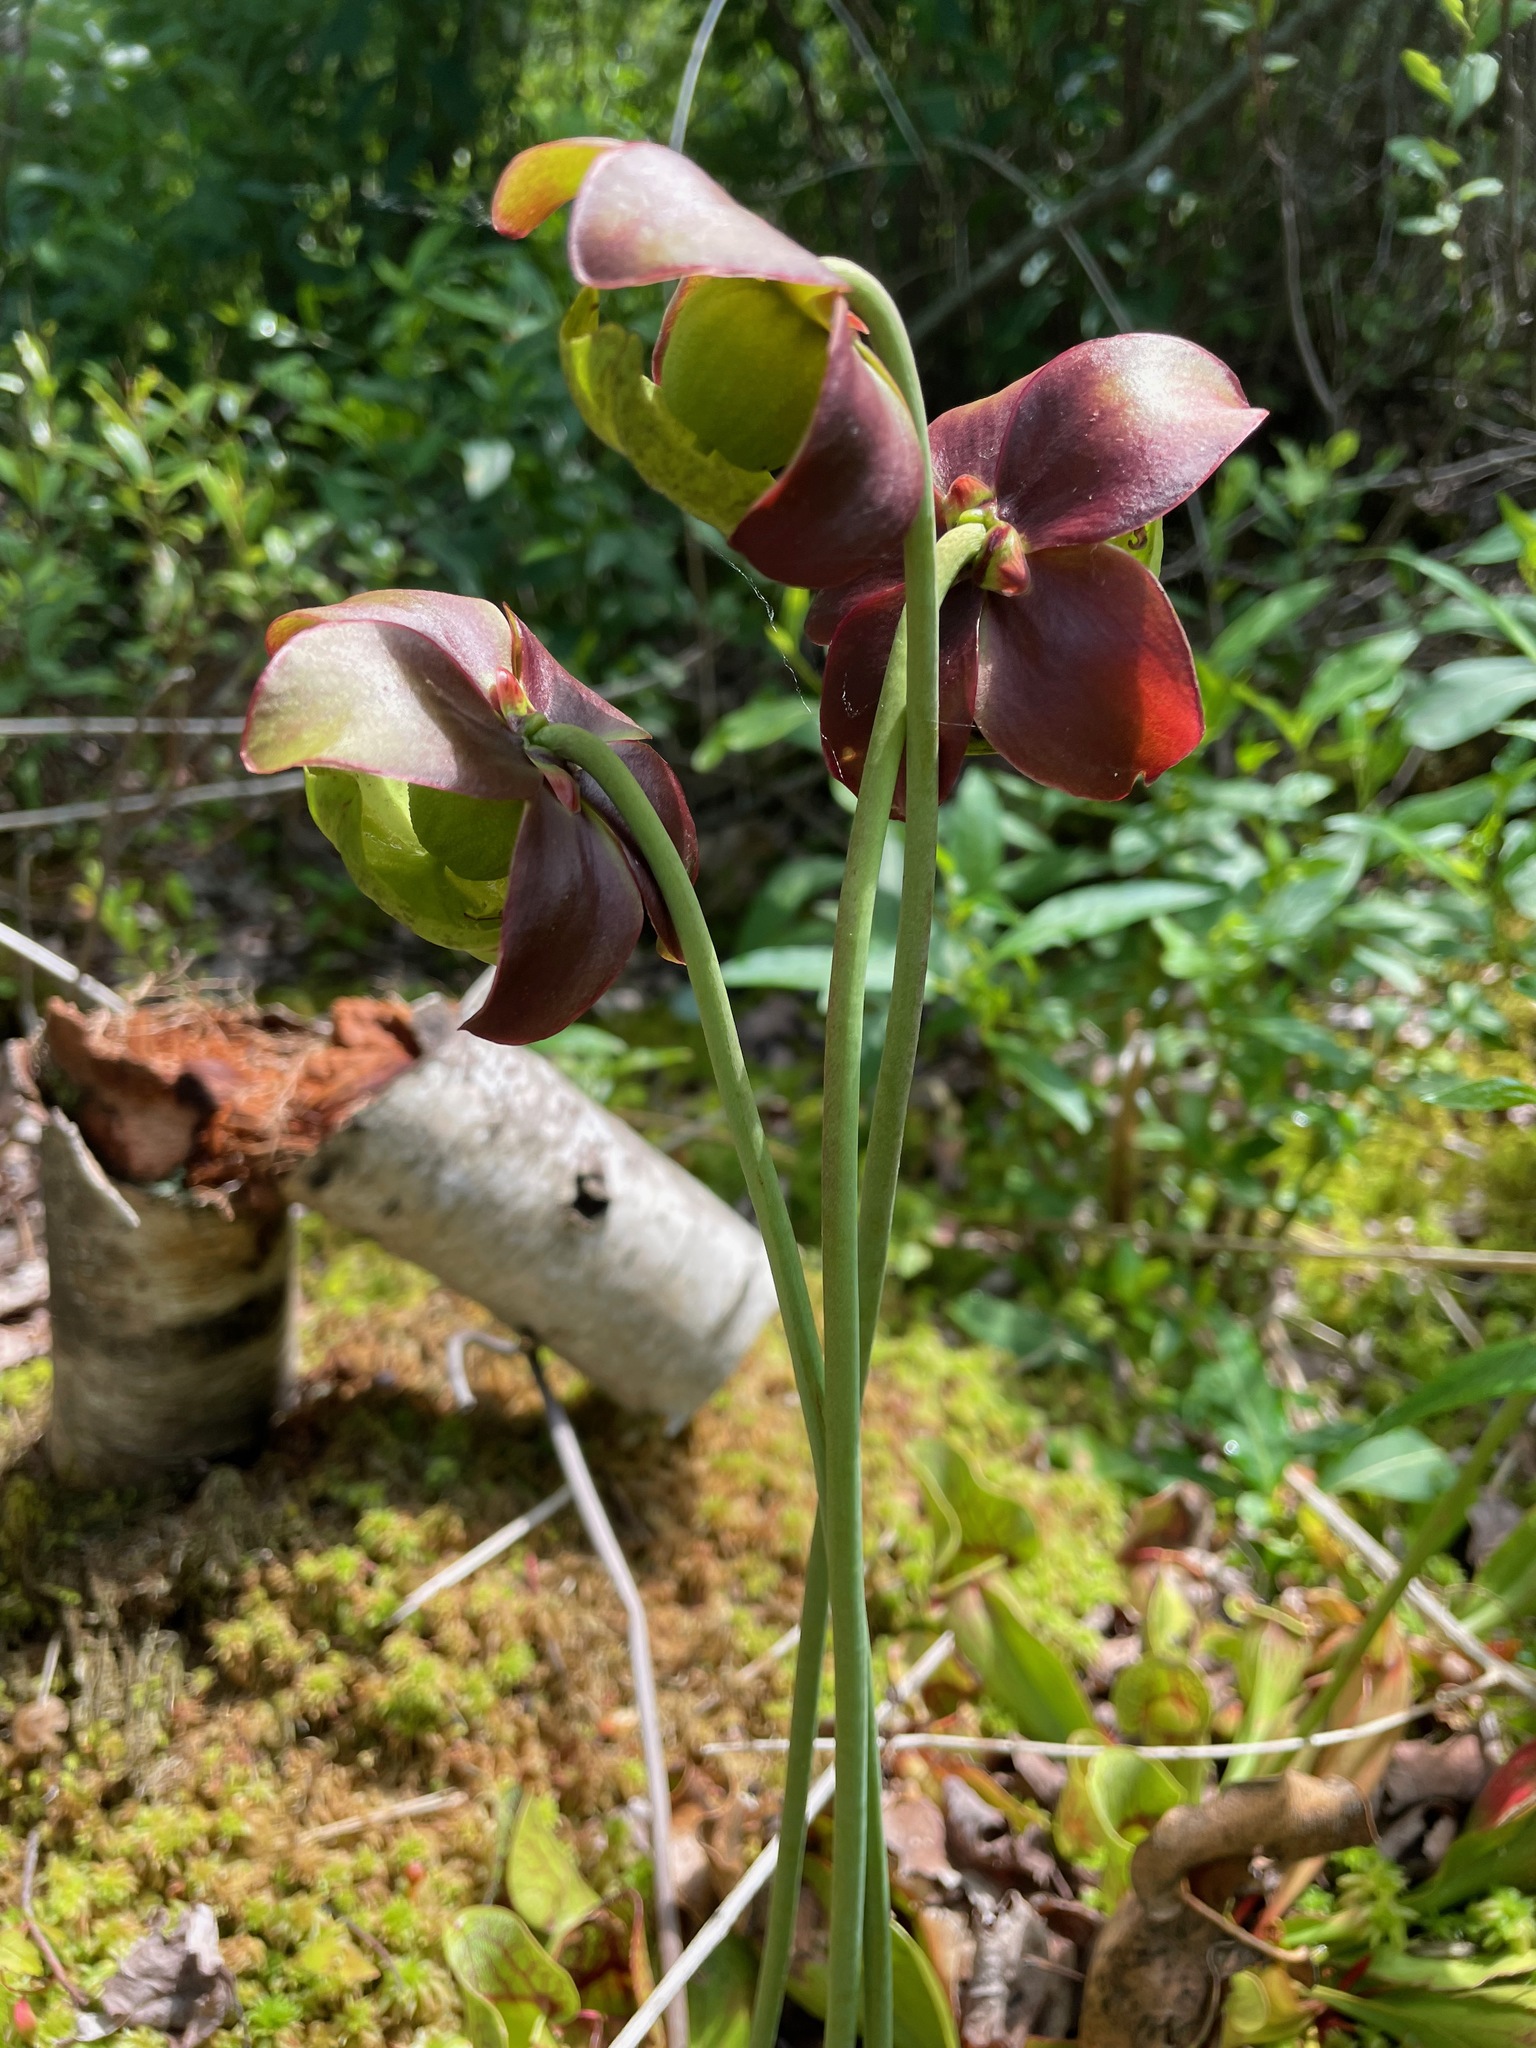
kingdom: Plantae
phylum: Tracheophyta
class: Magnoliopsida
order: Ericales
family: Sarraceniaceae
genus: Sarracenia
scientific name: Sarracenia purpurea
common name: Pitcherplant
